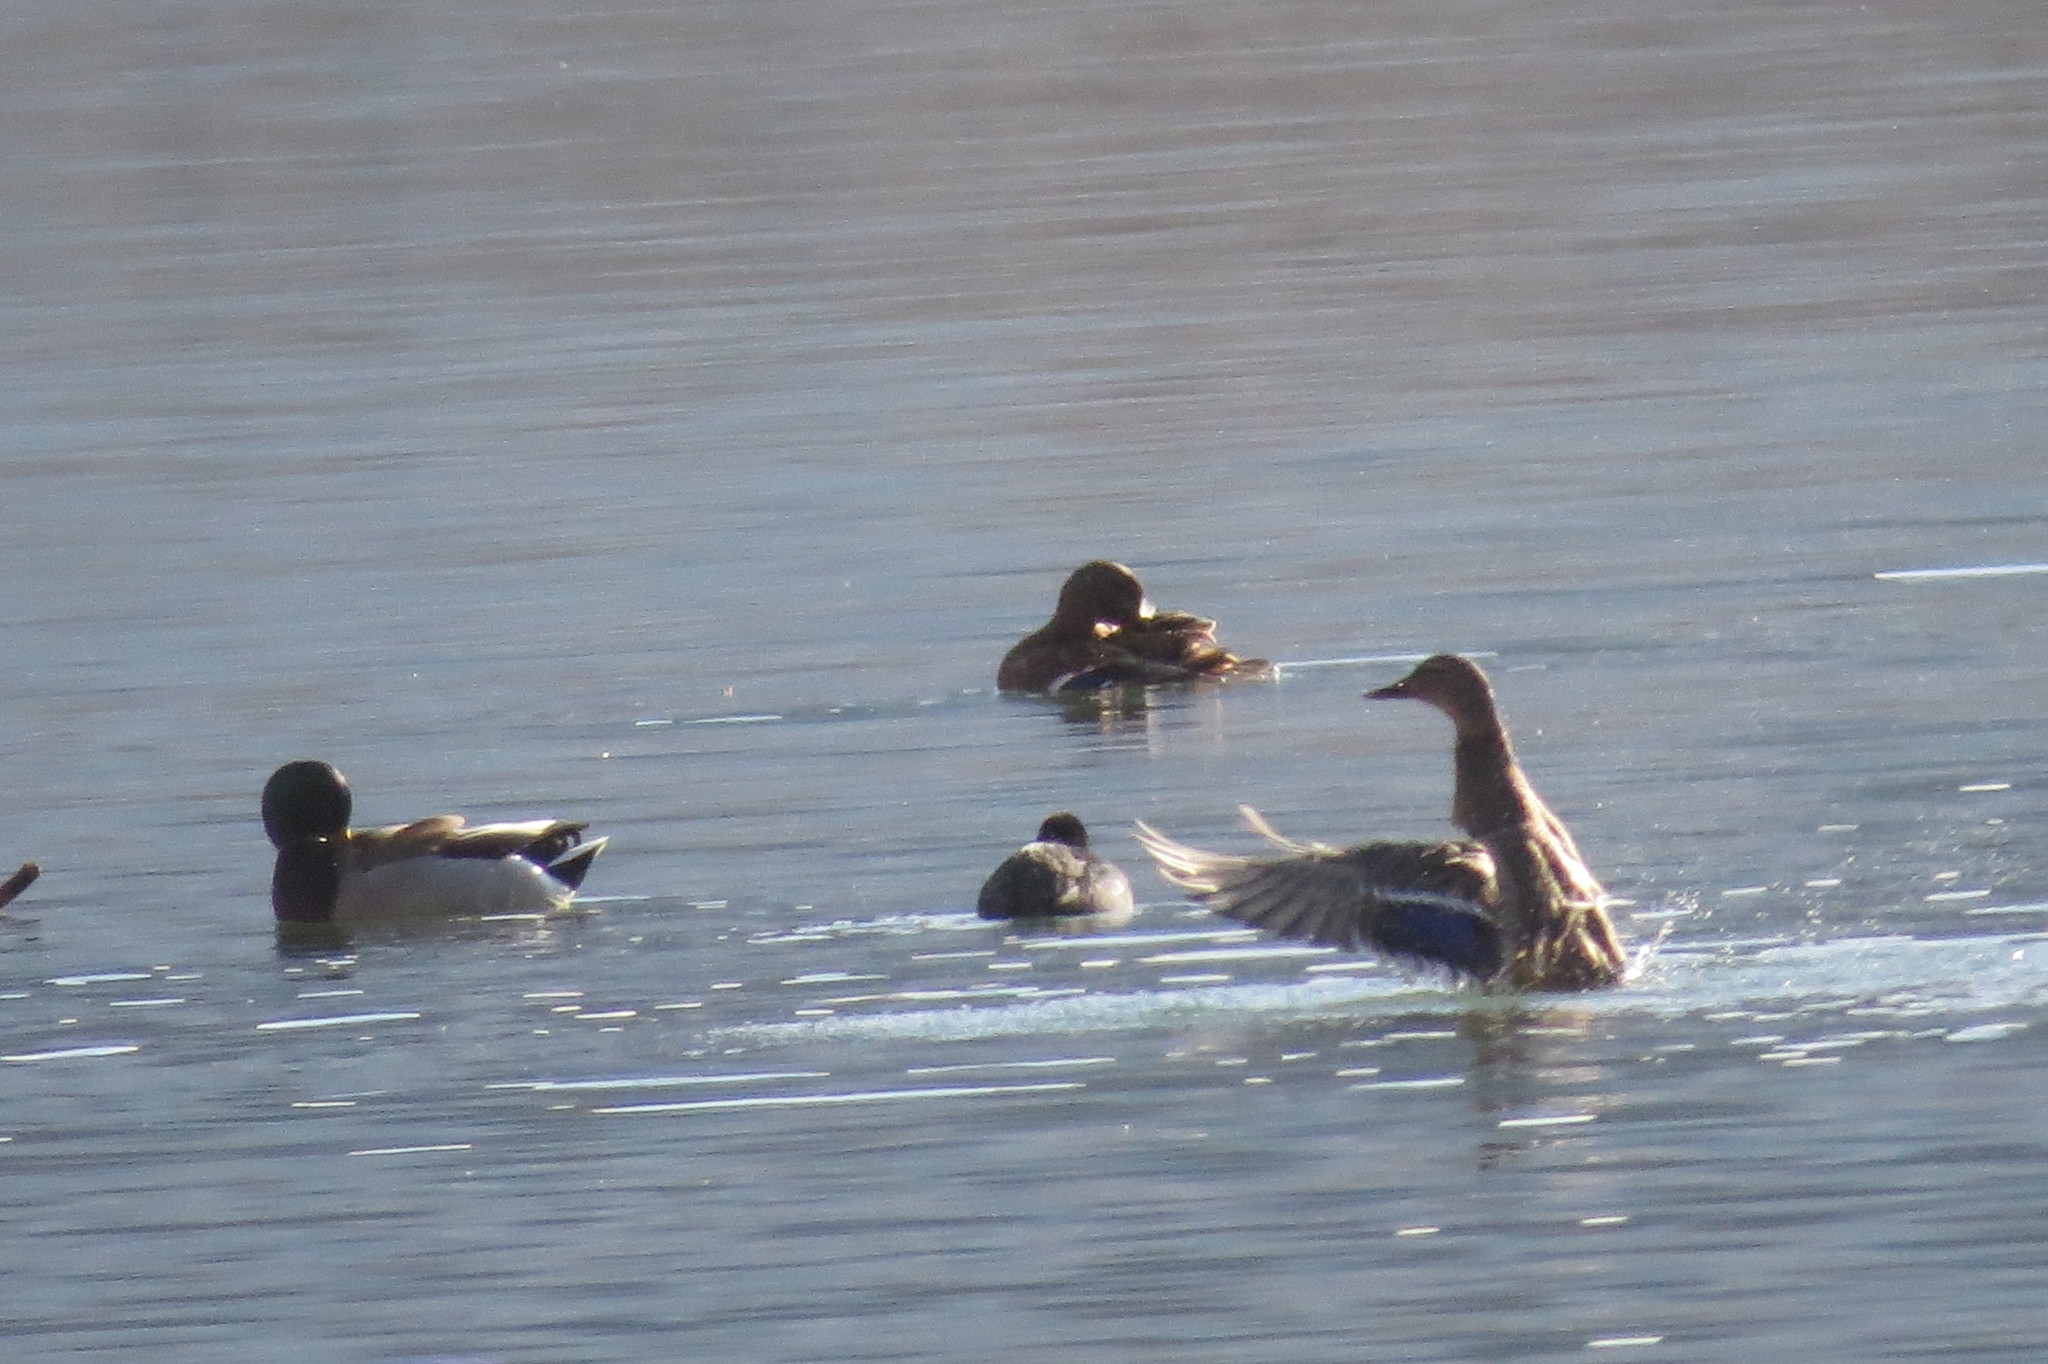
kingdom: Animalia
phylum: Chordata
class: Aves
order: Anseriformes
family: Anatidae
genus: Anas
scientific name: Anas platyrhynchos
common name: Mallard
